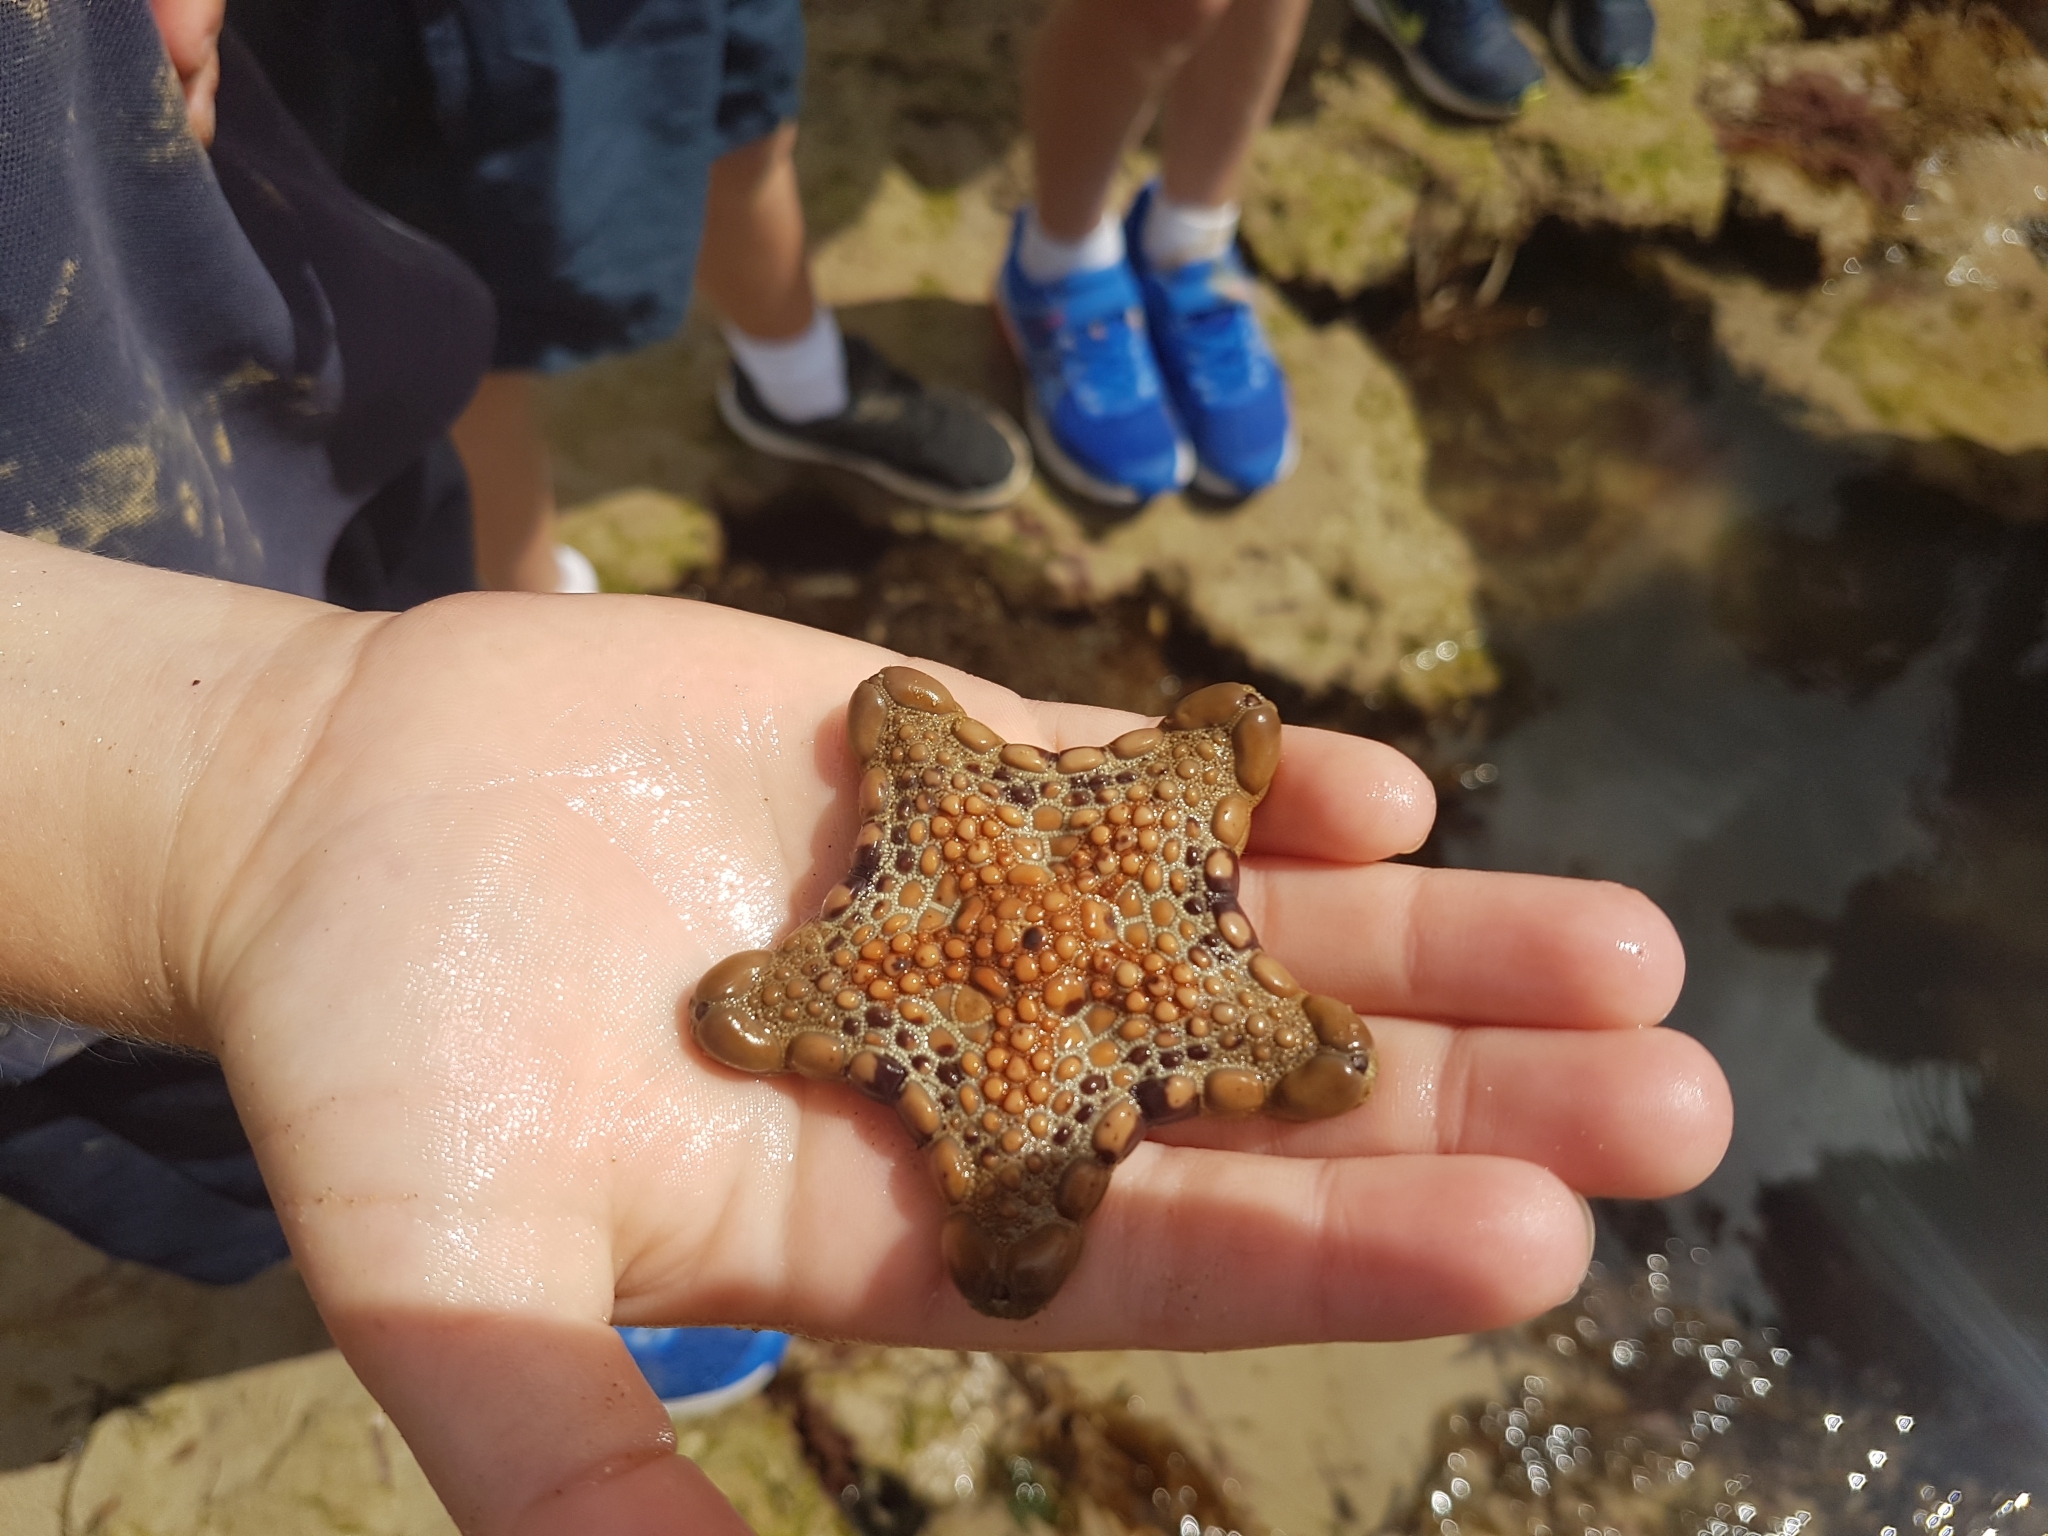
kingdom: Animalia
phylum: Echinodermata
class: Asteroidea
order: Valvatida
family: Goniasteridae
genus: Tosia
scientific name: Tosia australis
